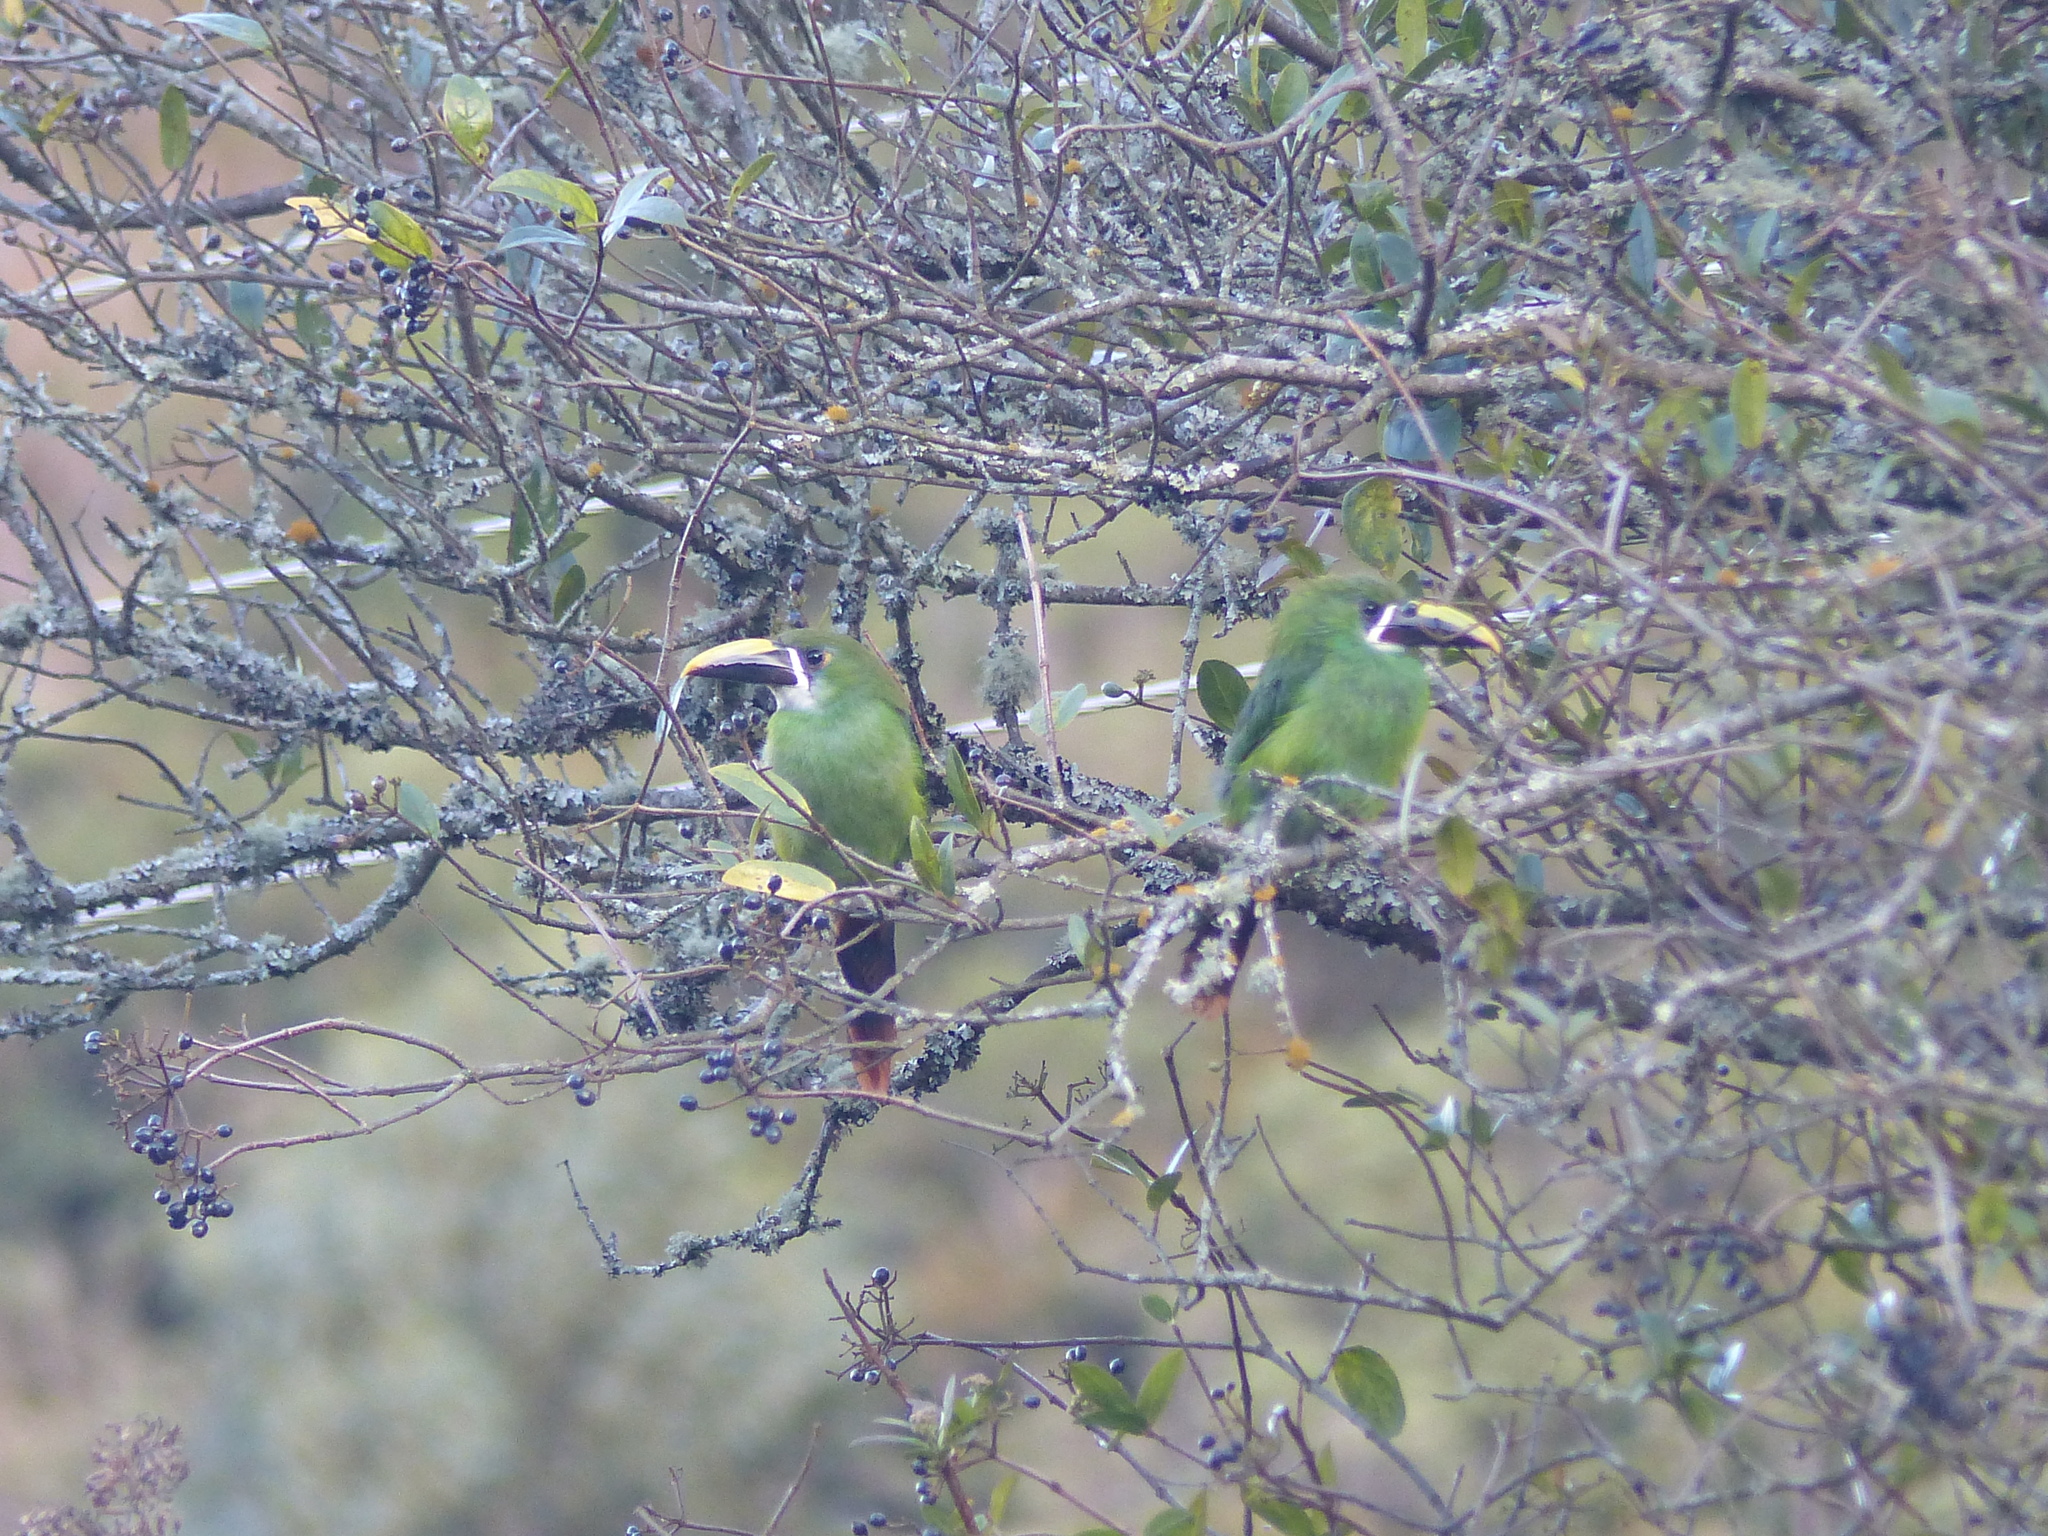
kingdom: Animalia
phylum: Chordata
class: Aves
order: Piciformes
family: Ramphastidae
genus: Aulacorhynchus
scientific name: Aulacorhynchus albivitta
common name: White-throated toucanet
